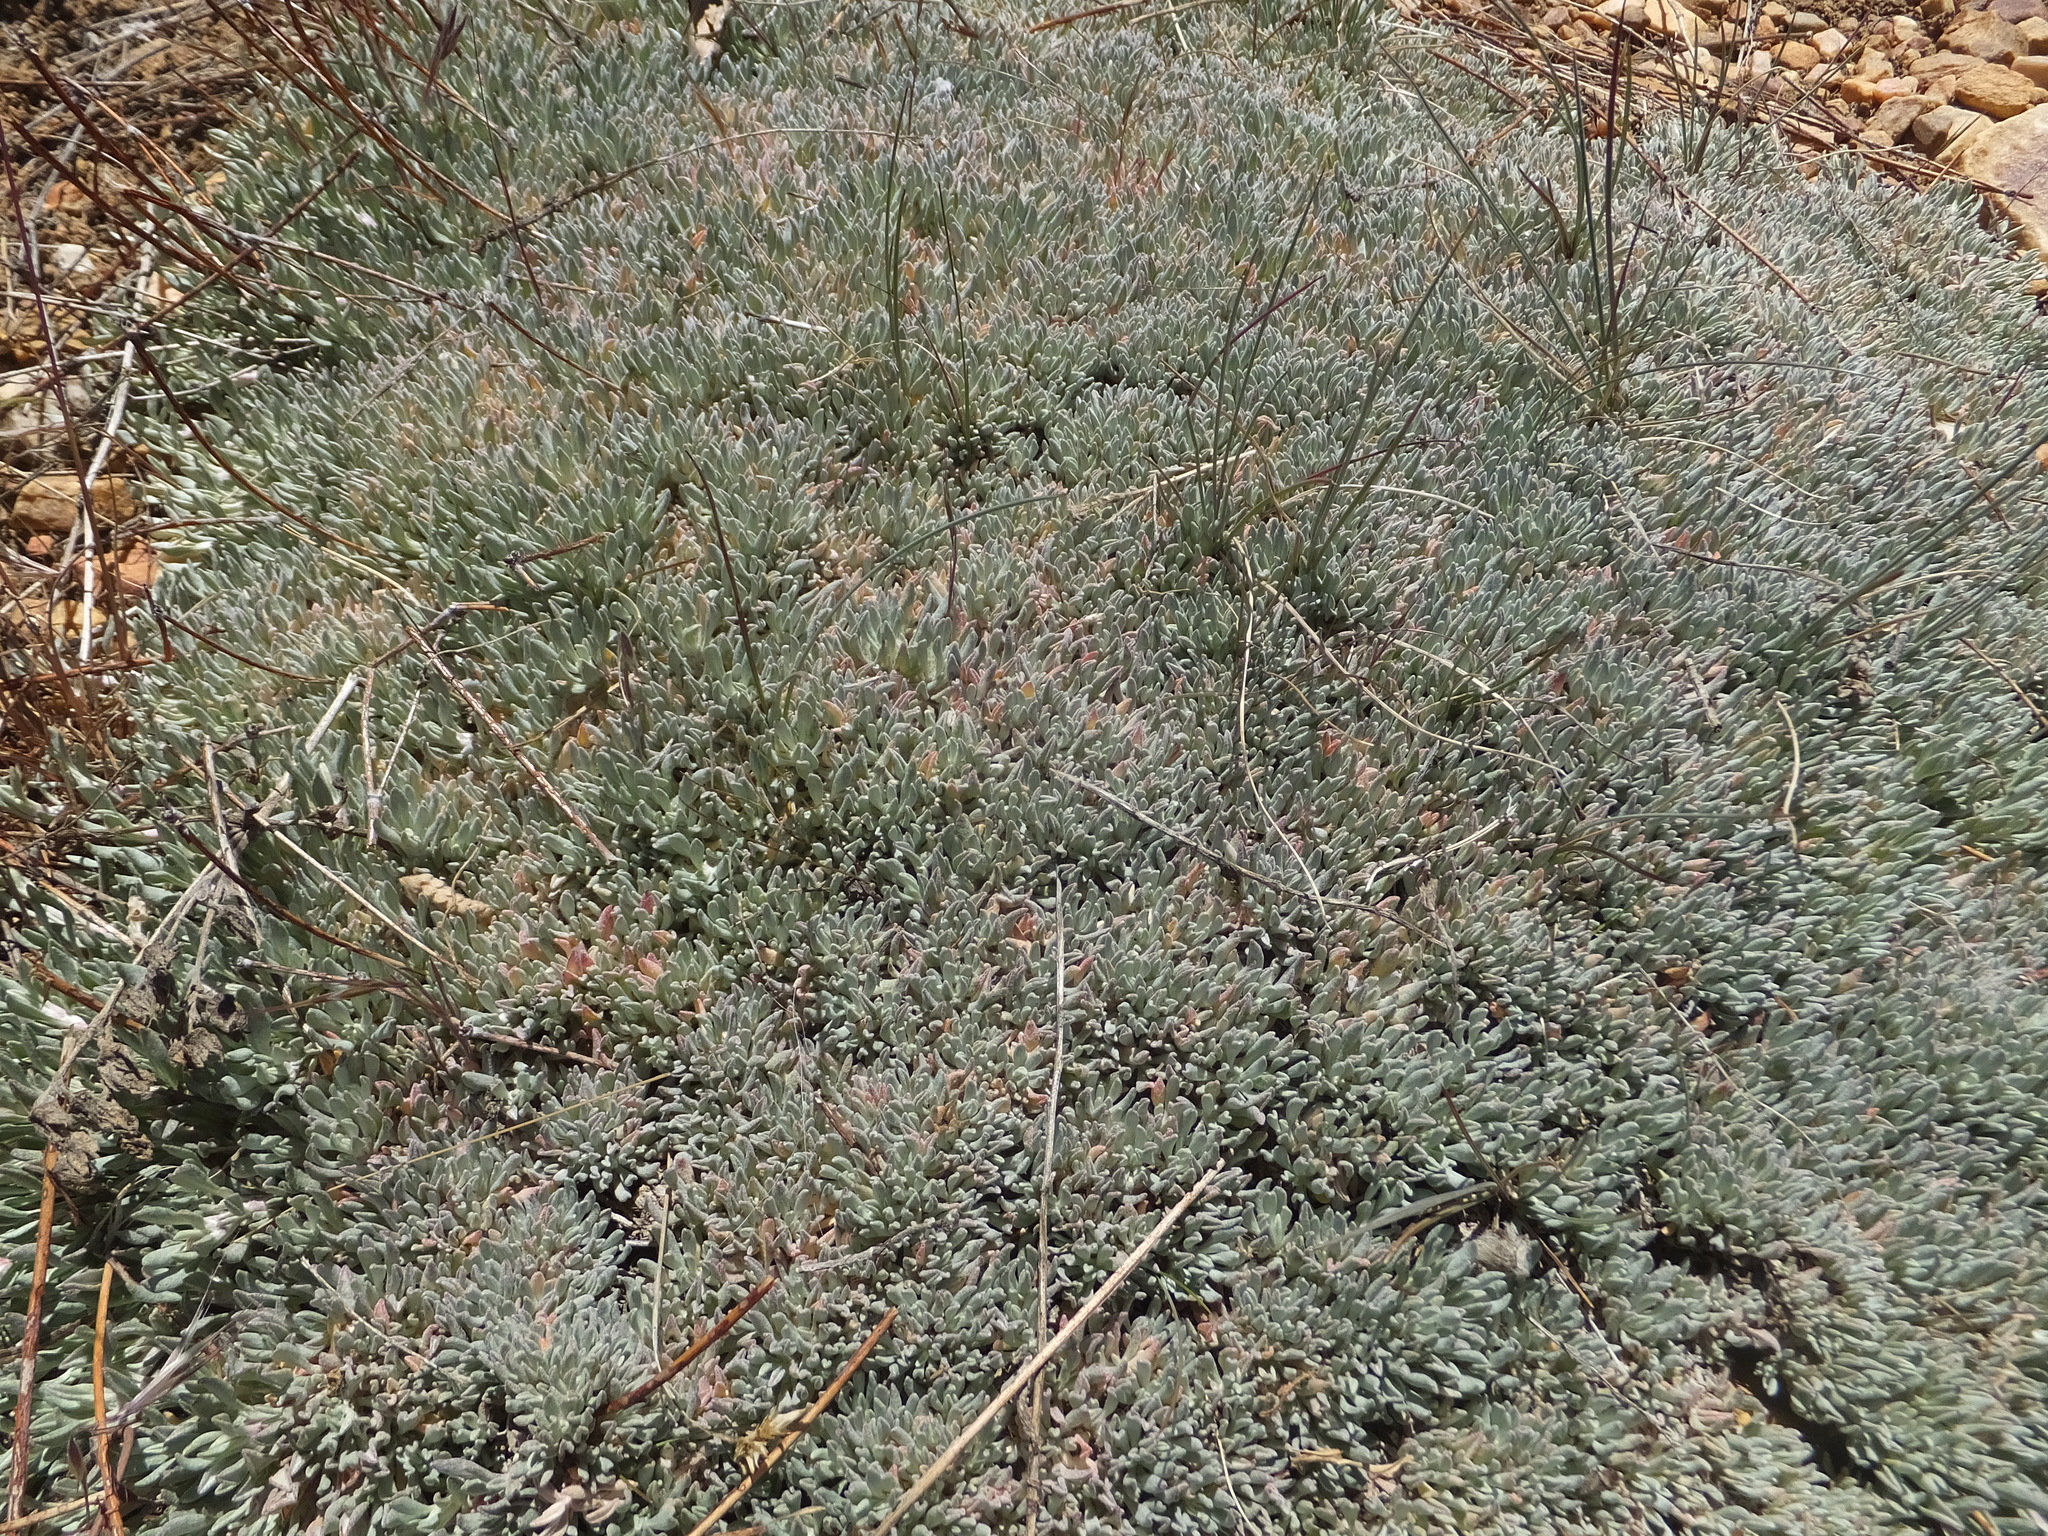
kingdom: Plantae
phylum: Tracheophyta
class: Magnoliopsida
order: Caryophyllales
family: Polygonaceae
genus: Eriogonum
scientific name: Eriogonum kennedyi
